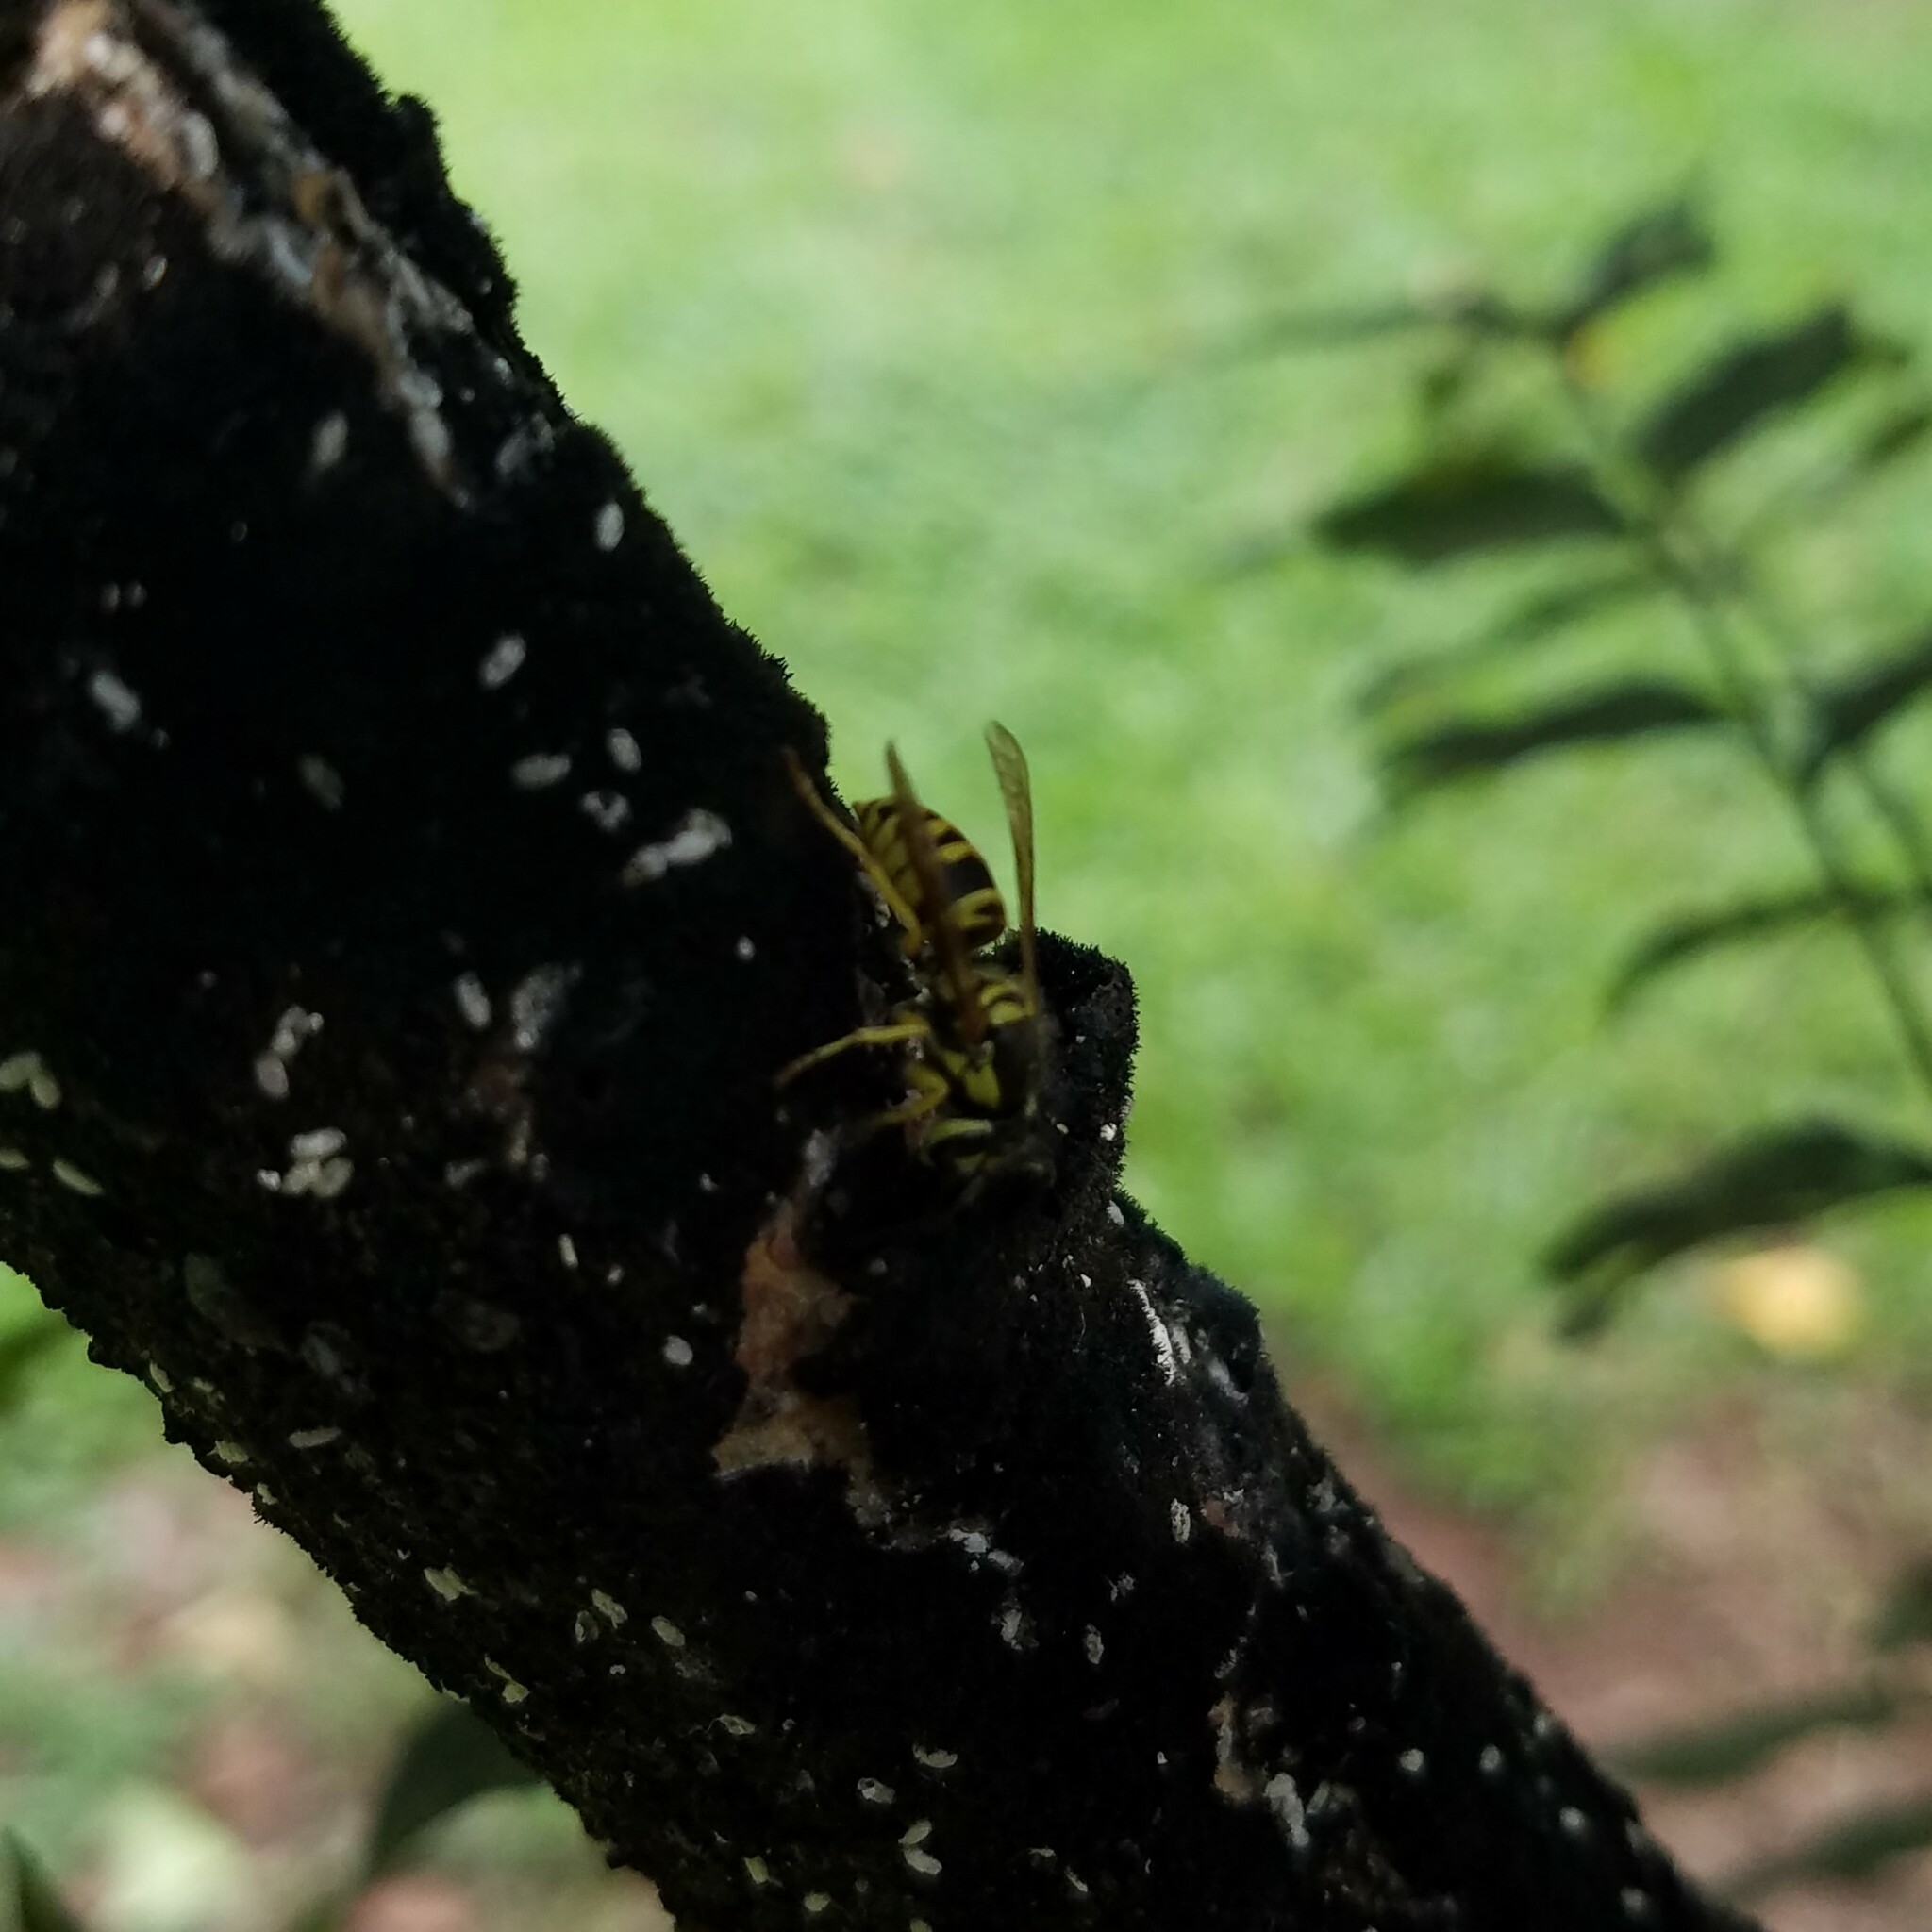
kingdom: Animalia
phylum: Arthropoda
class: Insecta
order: Hymenoptera
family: Vespidae
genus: Vespula
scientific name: Vespula maculifrons
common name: Eastern yellowjacket
